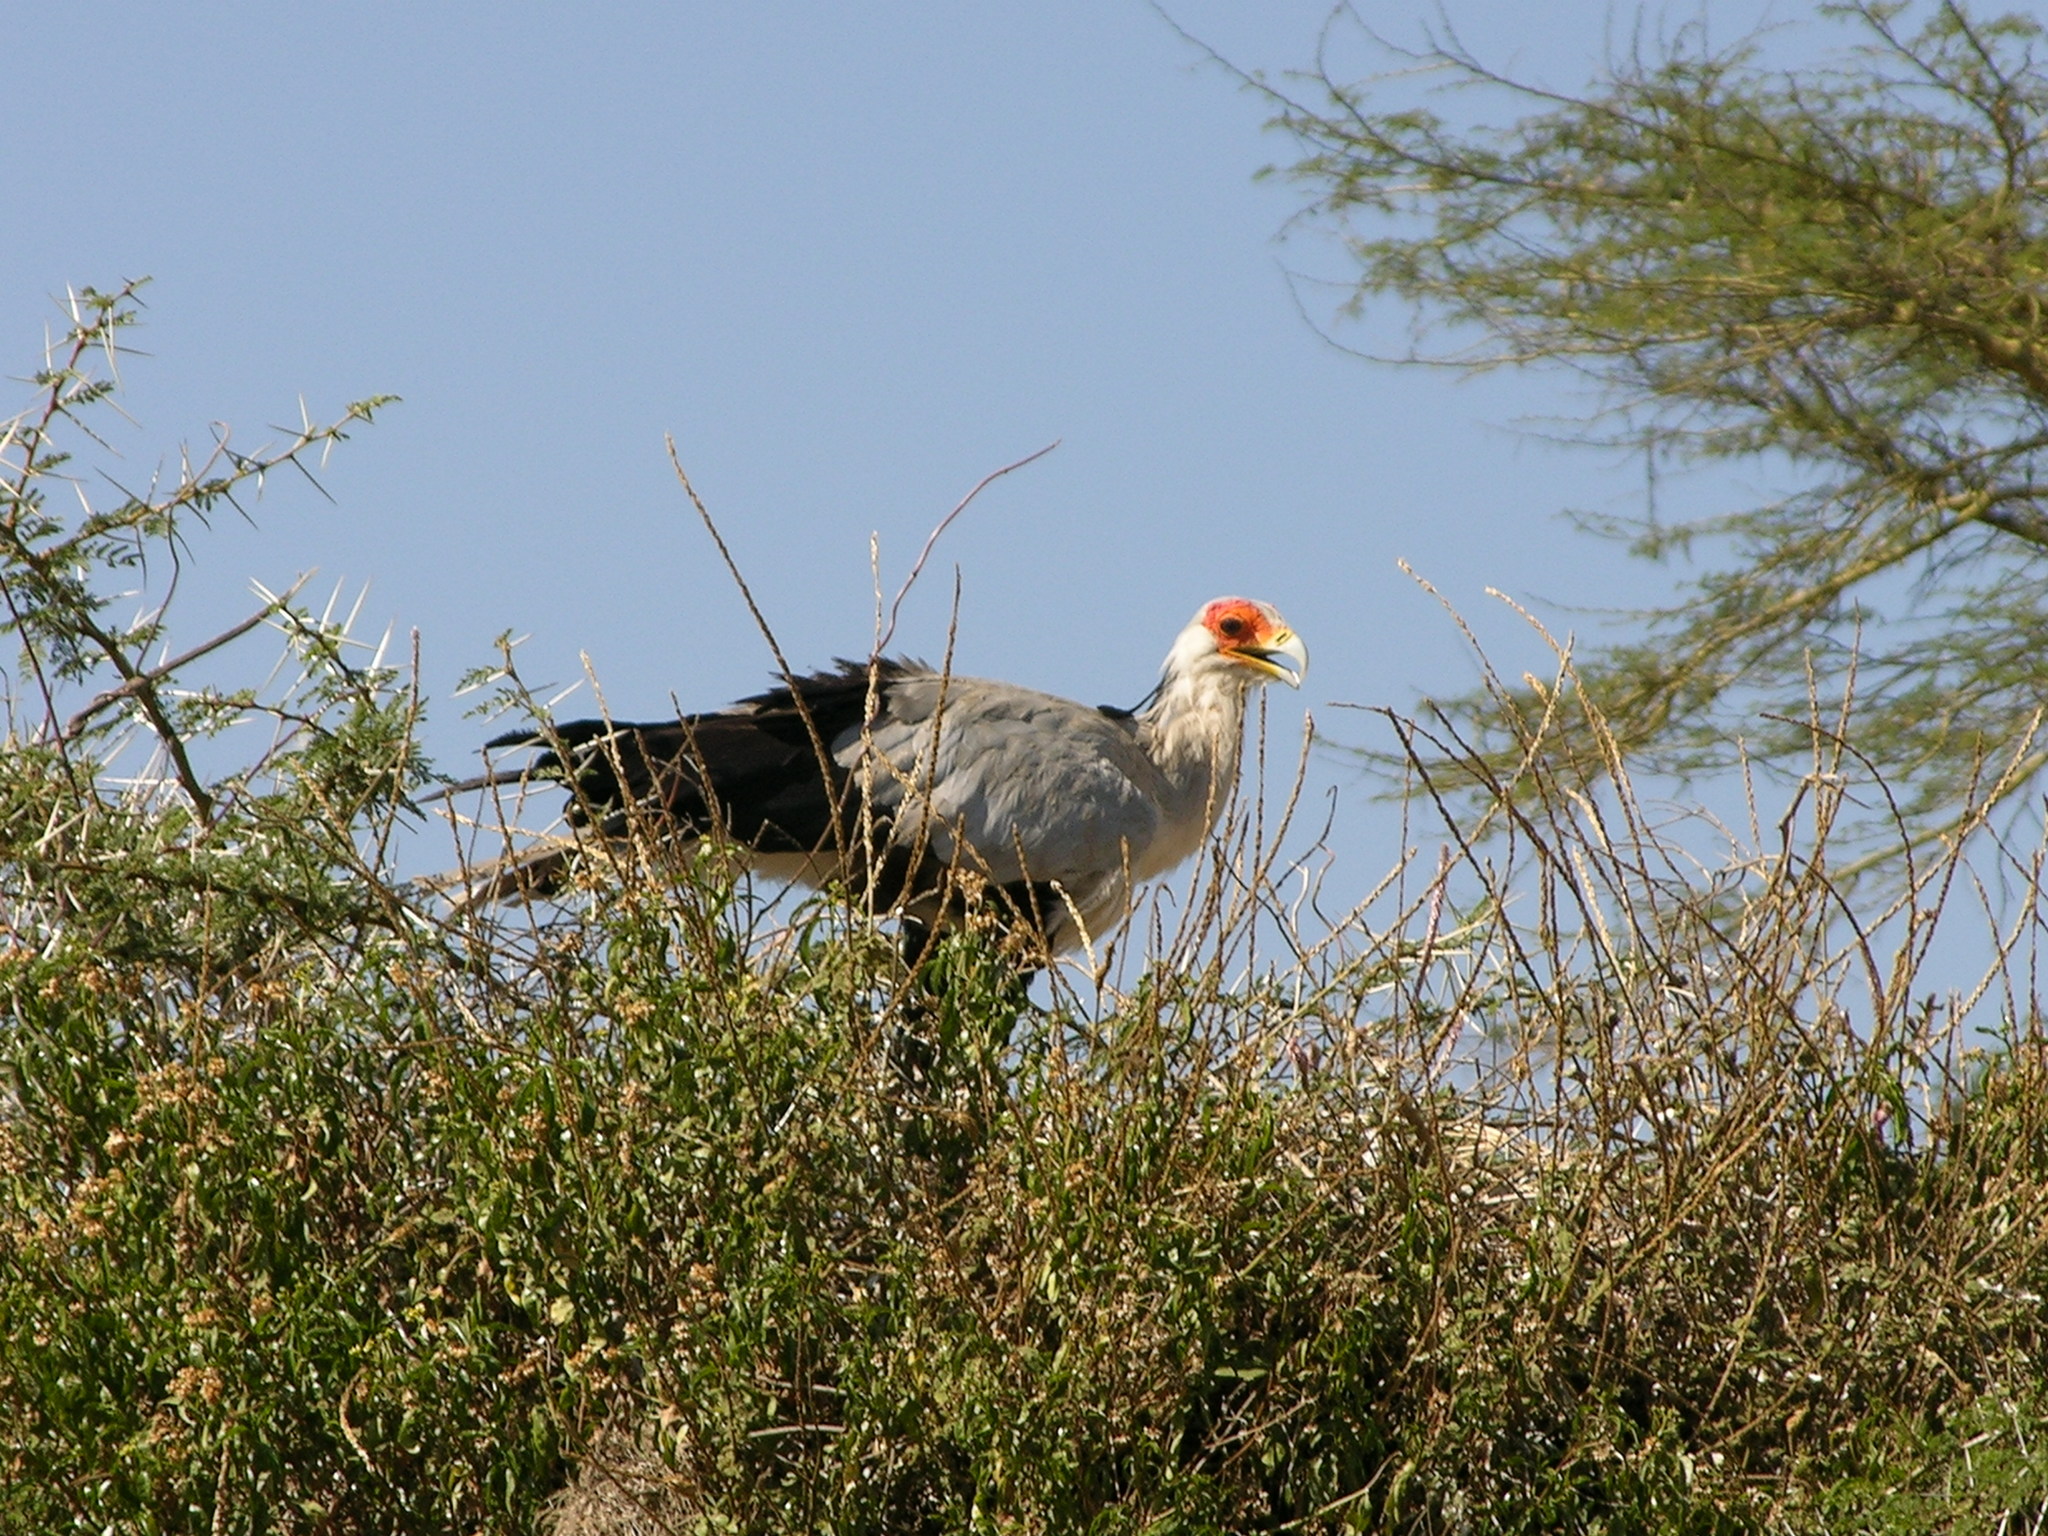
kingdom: Animalia
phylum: Chordata
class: Aves
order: Accipitriformes
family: Sagittariidae
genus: Sagittarius
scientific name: Sagittarius serpentarius
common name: Secretarybird
